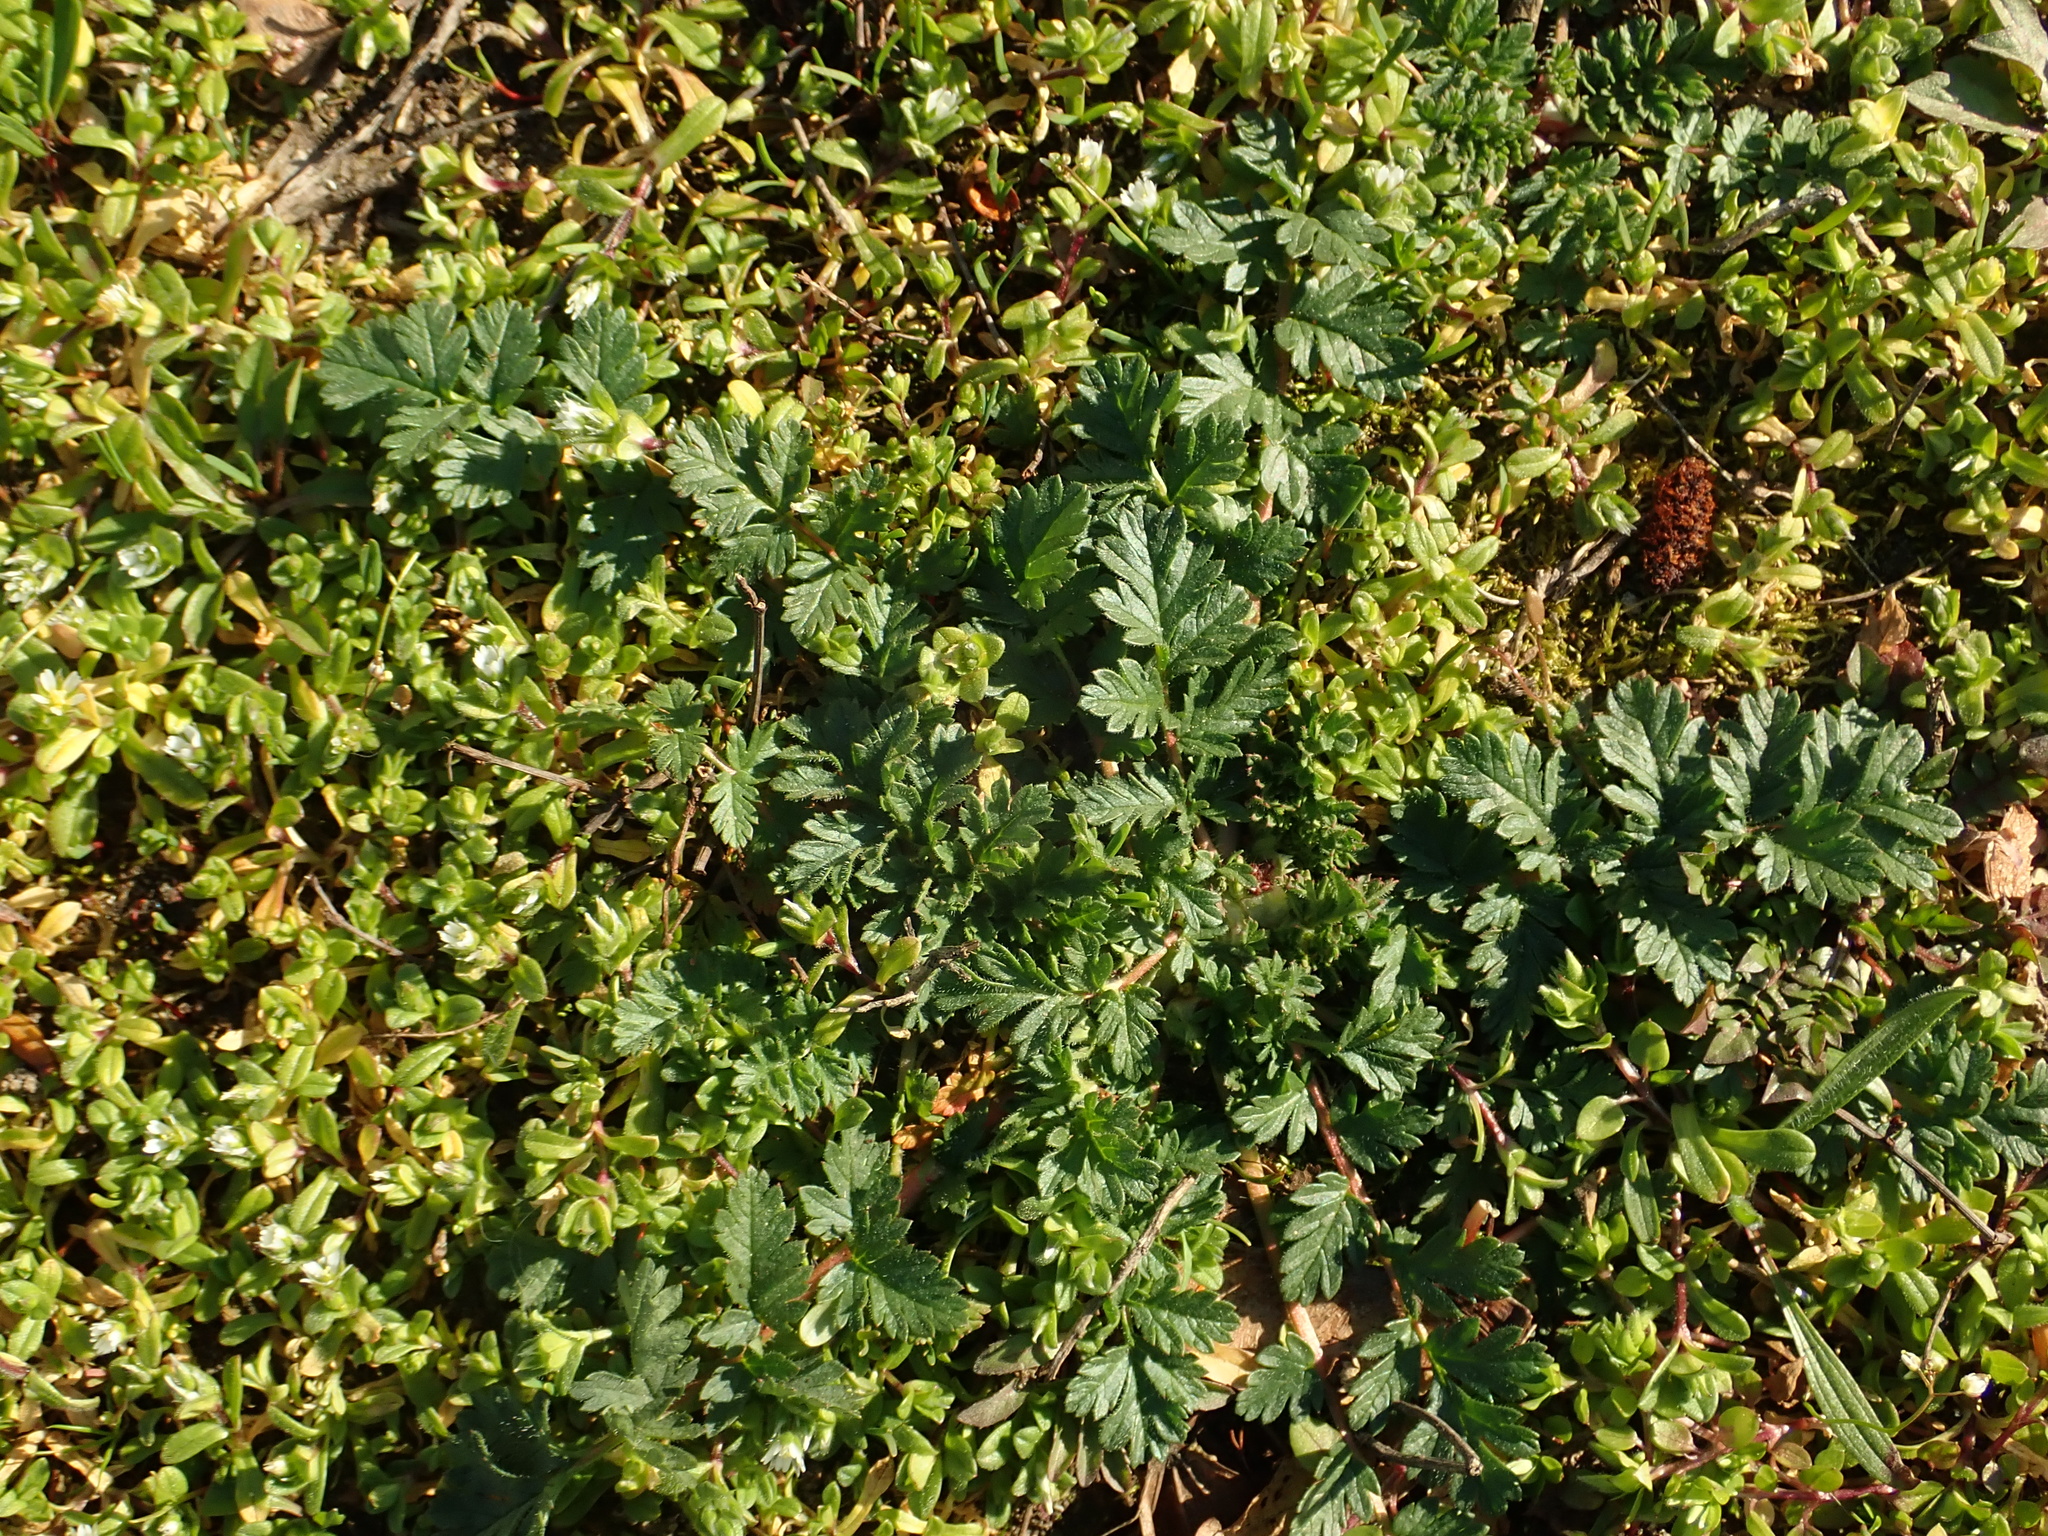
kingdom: Plantae
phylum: Tracheophyta
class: Magnoliopsida
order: Geraniales
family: Geraniaceae
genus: Erodium
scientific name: Erodium cicutarium
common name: Common stork's-bill
